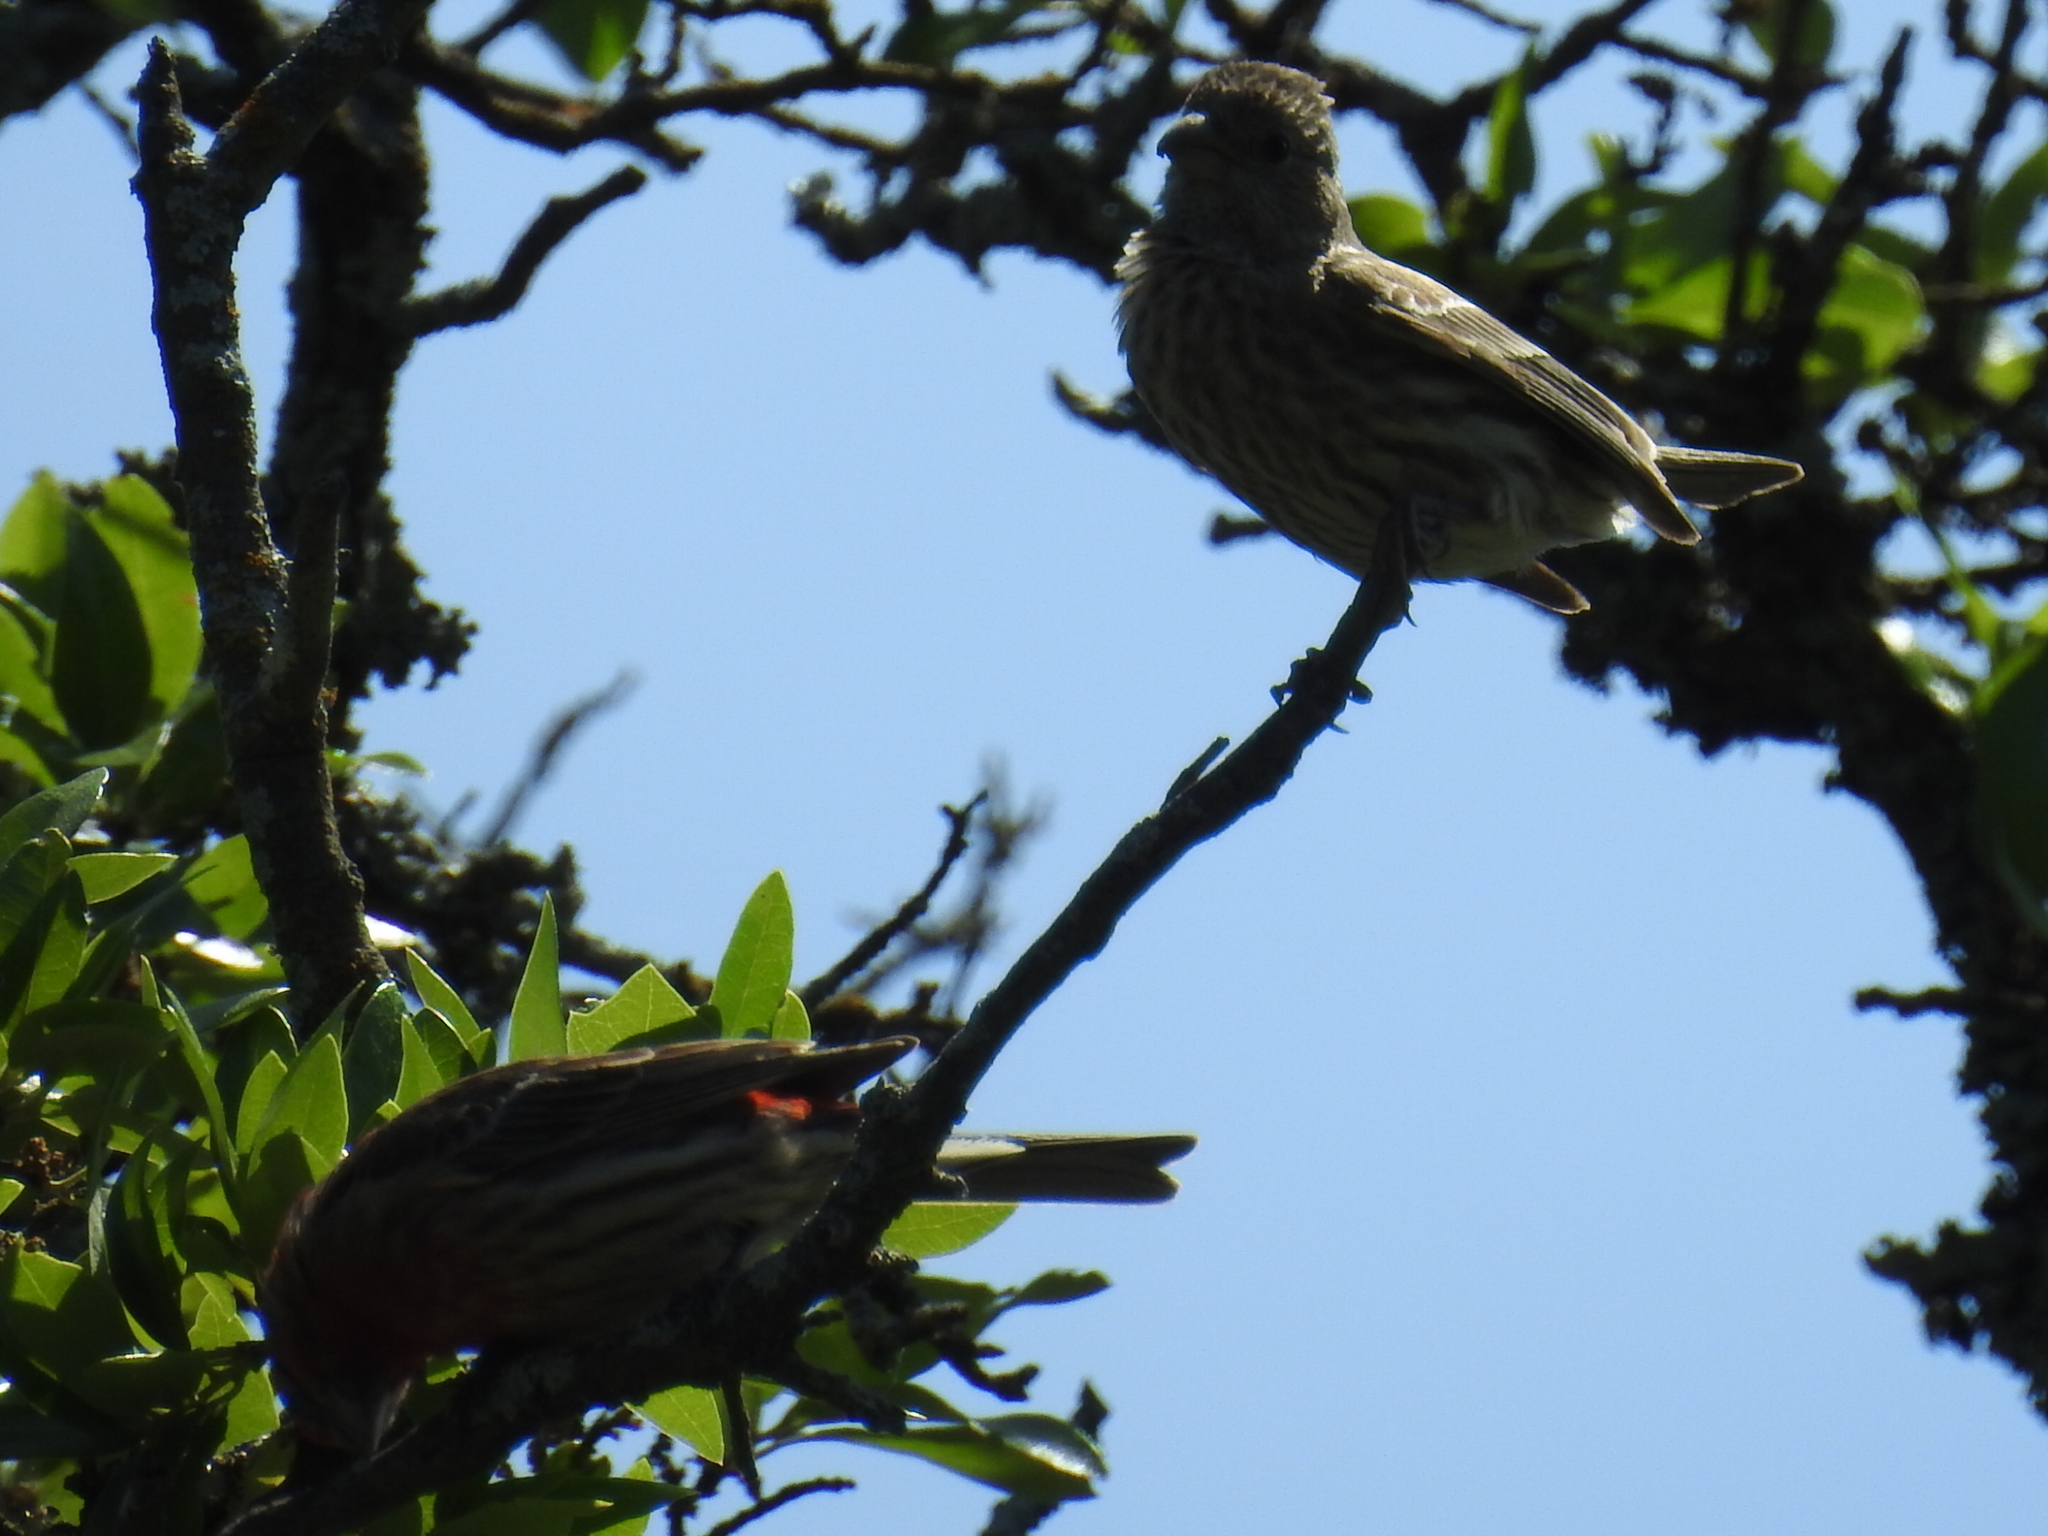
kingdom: Animalia
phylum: Chordata
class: Aves
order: Passeriformes
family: Fringillidae
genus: Haemorhous
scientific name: Haemorhous mexicanus
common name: House finch
